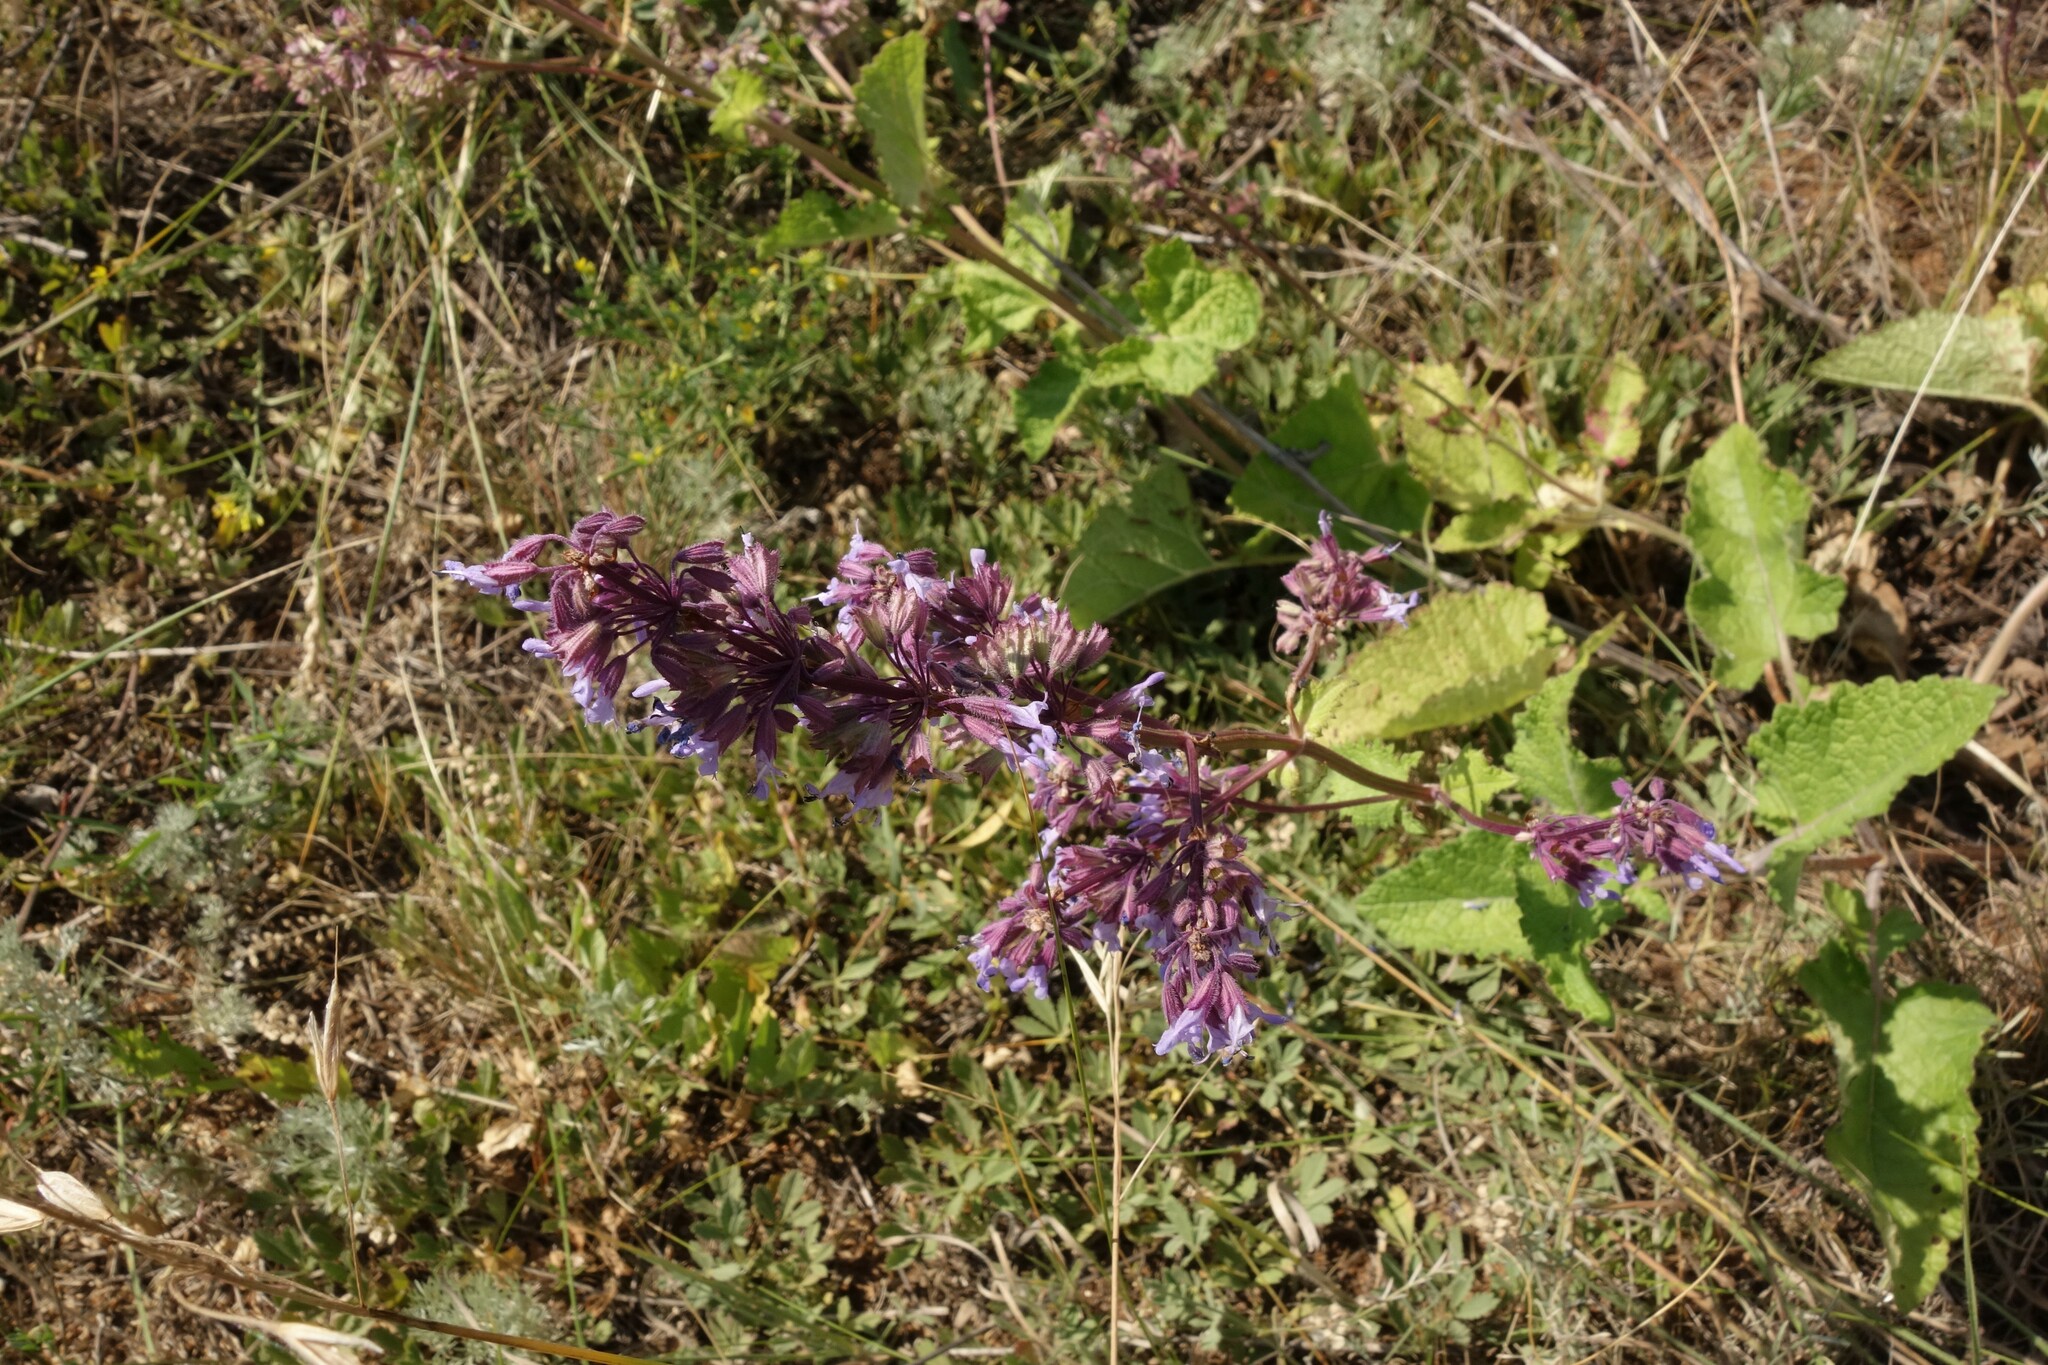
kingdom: Plantae
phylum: Tracheophyta
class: Magnoliopsida
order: Lamiales
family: Lamiaceae
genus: Salvia
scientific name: Salvia verticillata
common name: Whorled clary
